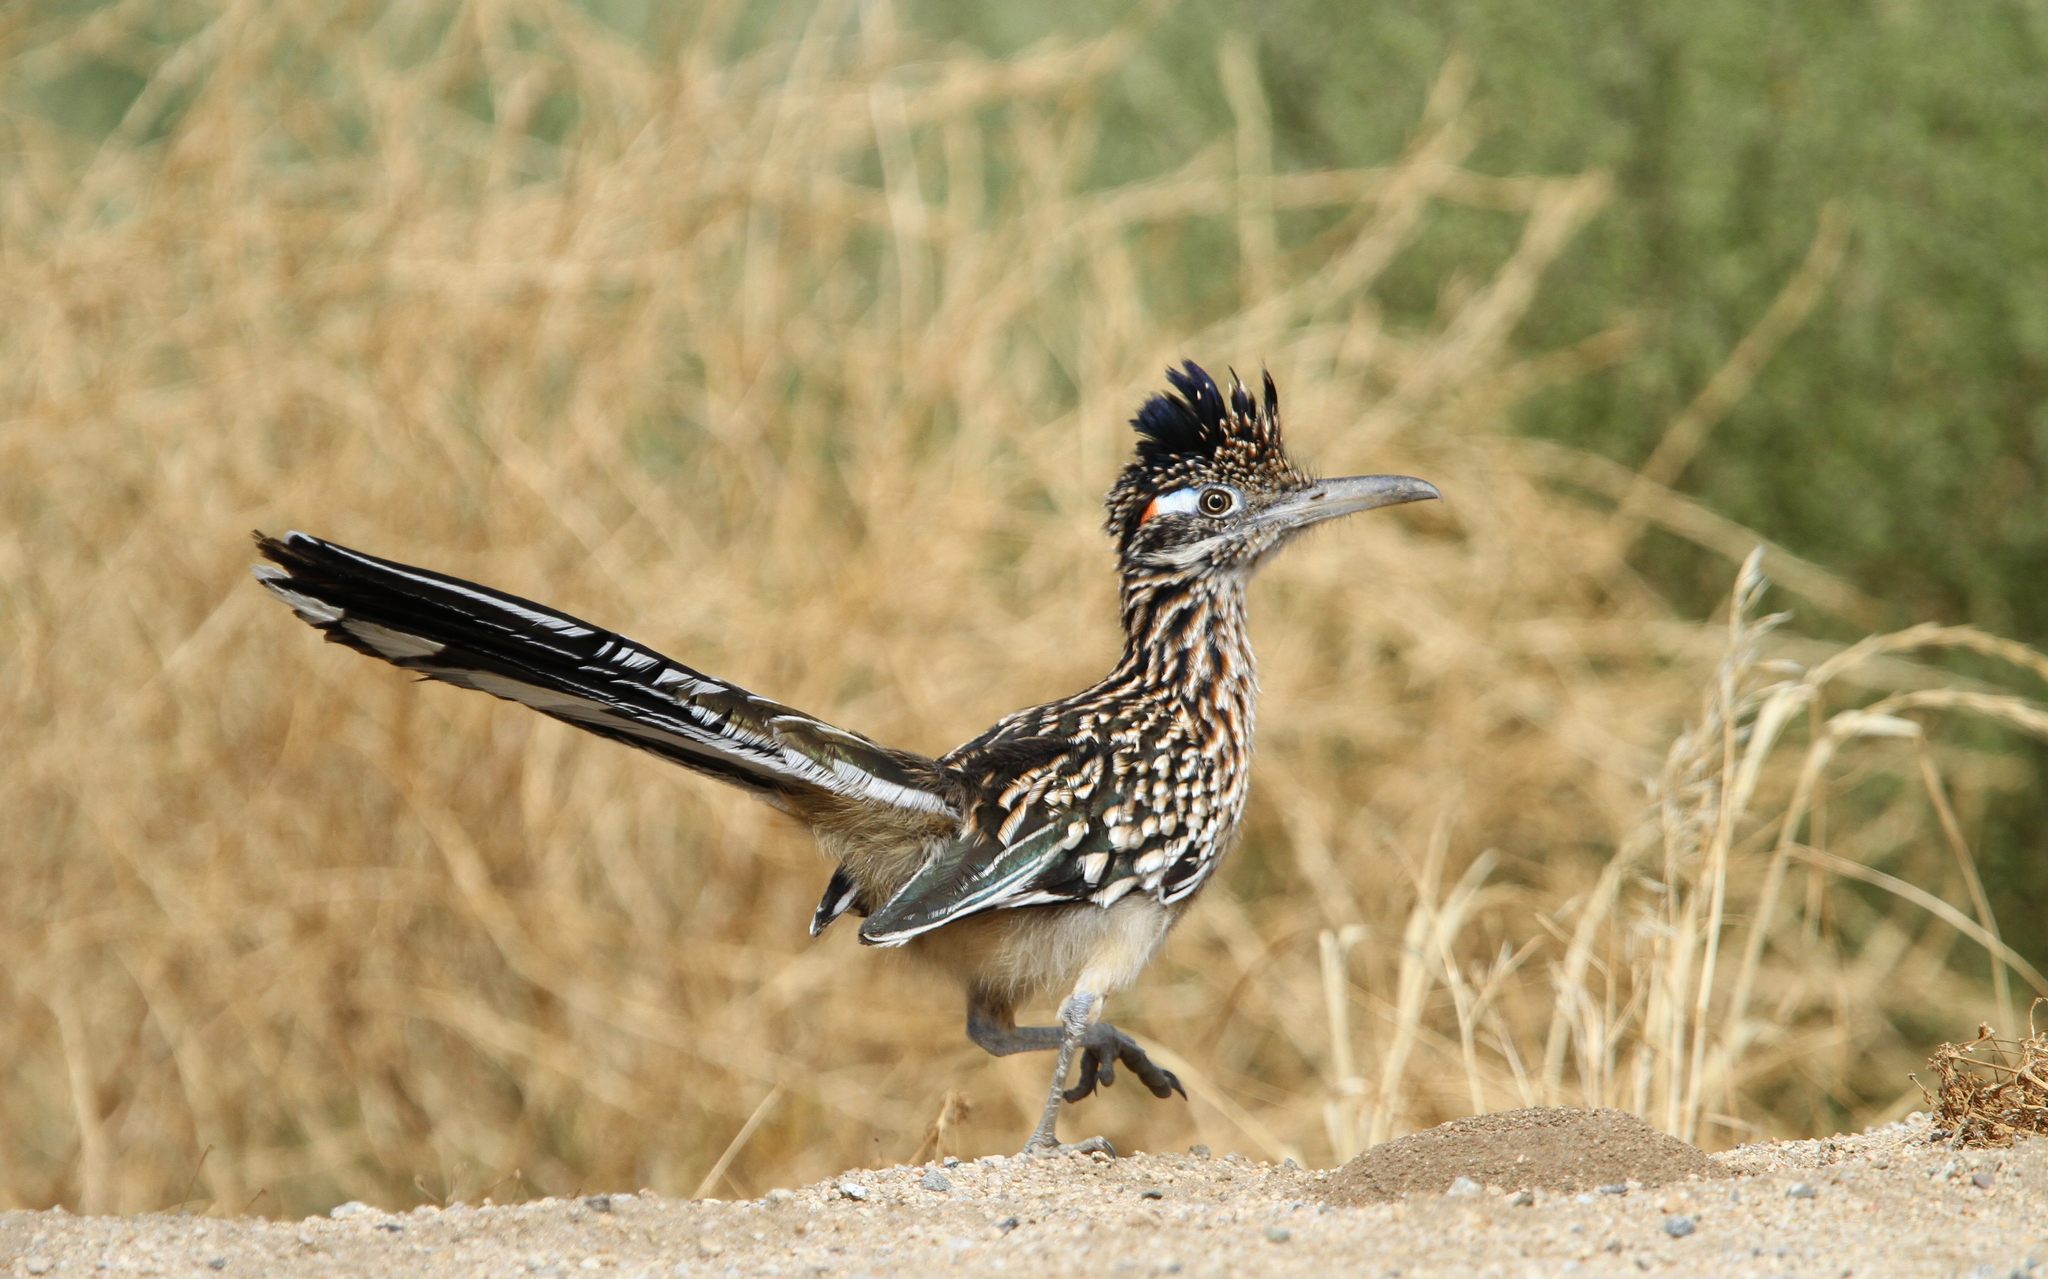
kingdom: Animalia
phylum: Chordata
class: Aves
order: Cuculiformes
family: Cuculidae
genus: Geococcyx
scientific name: Geococcyx californianus
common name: Greater roadrunner
